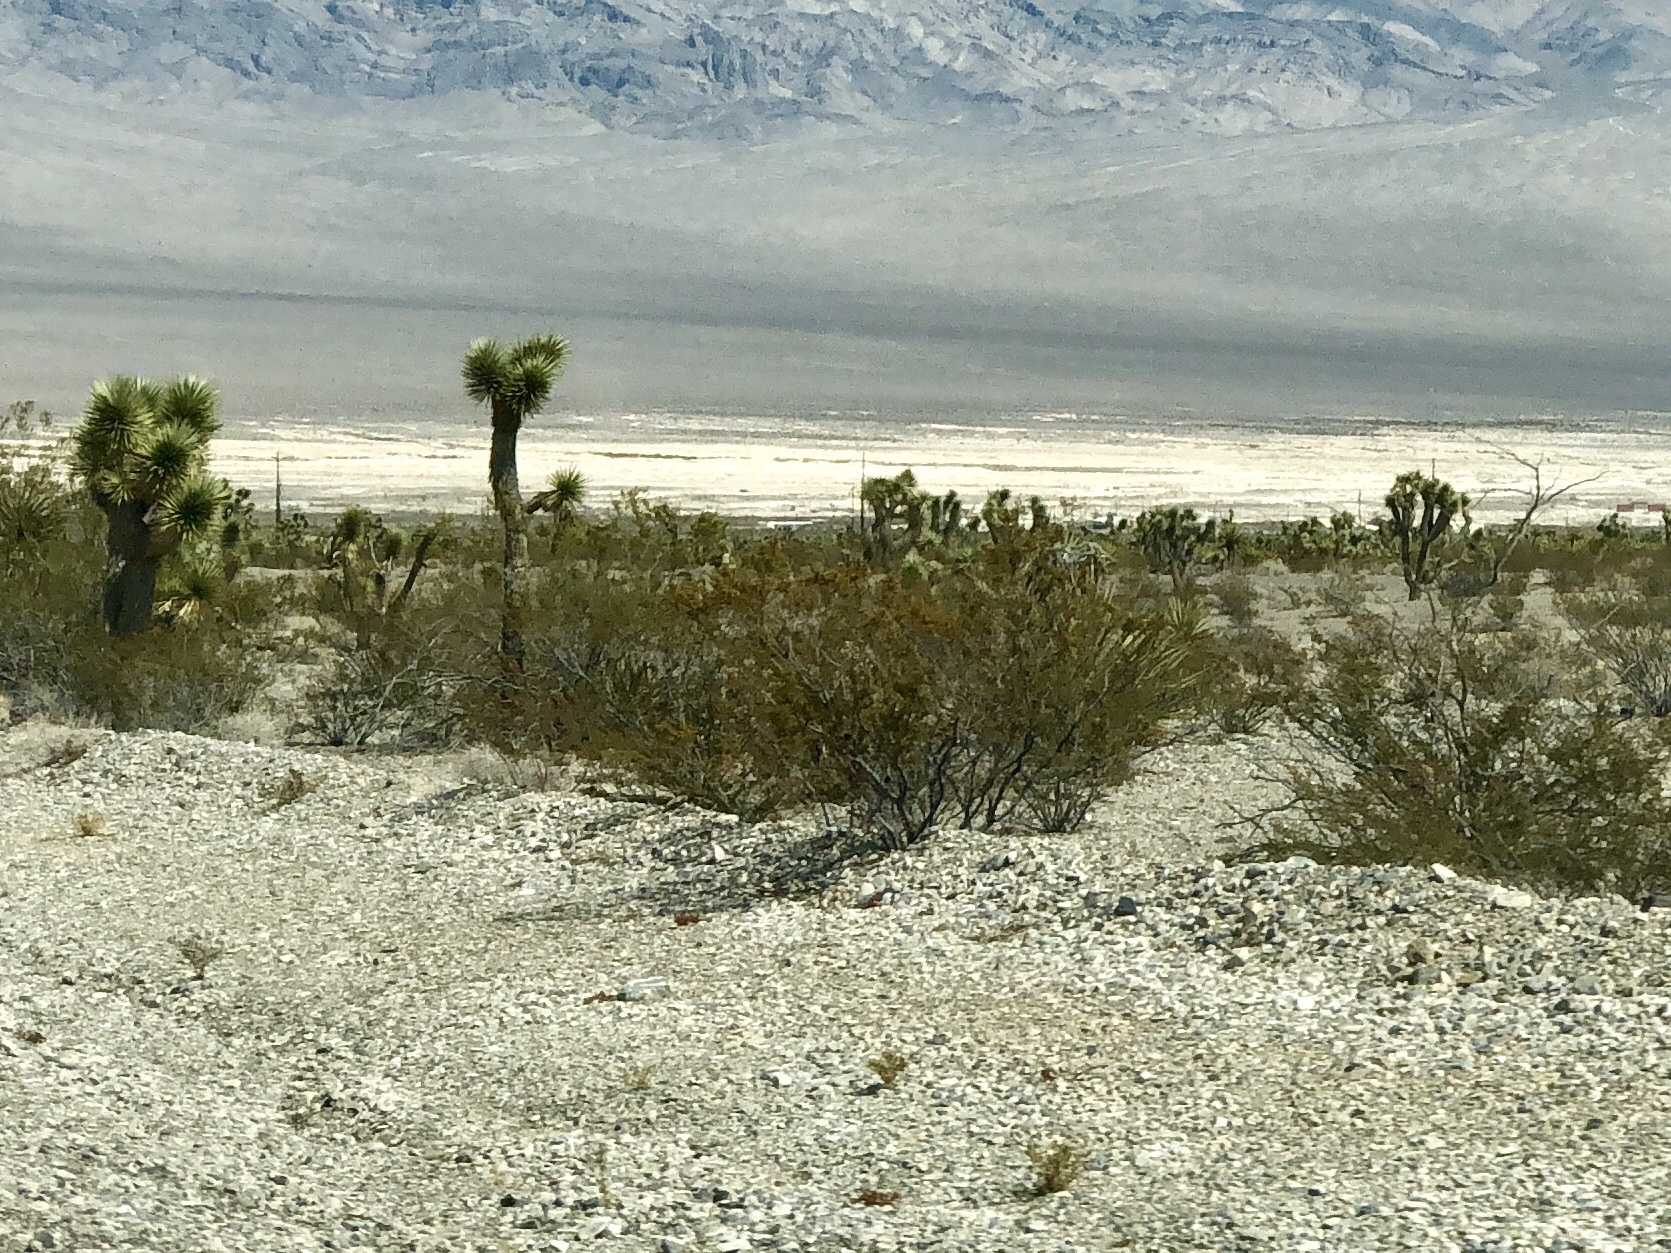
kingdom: Plantae
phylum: Tracheophyta
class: Magnoliopsida
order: Zygophyllales
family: Zygophyllaceae
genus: Larrea
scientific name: Larrea tridentata
